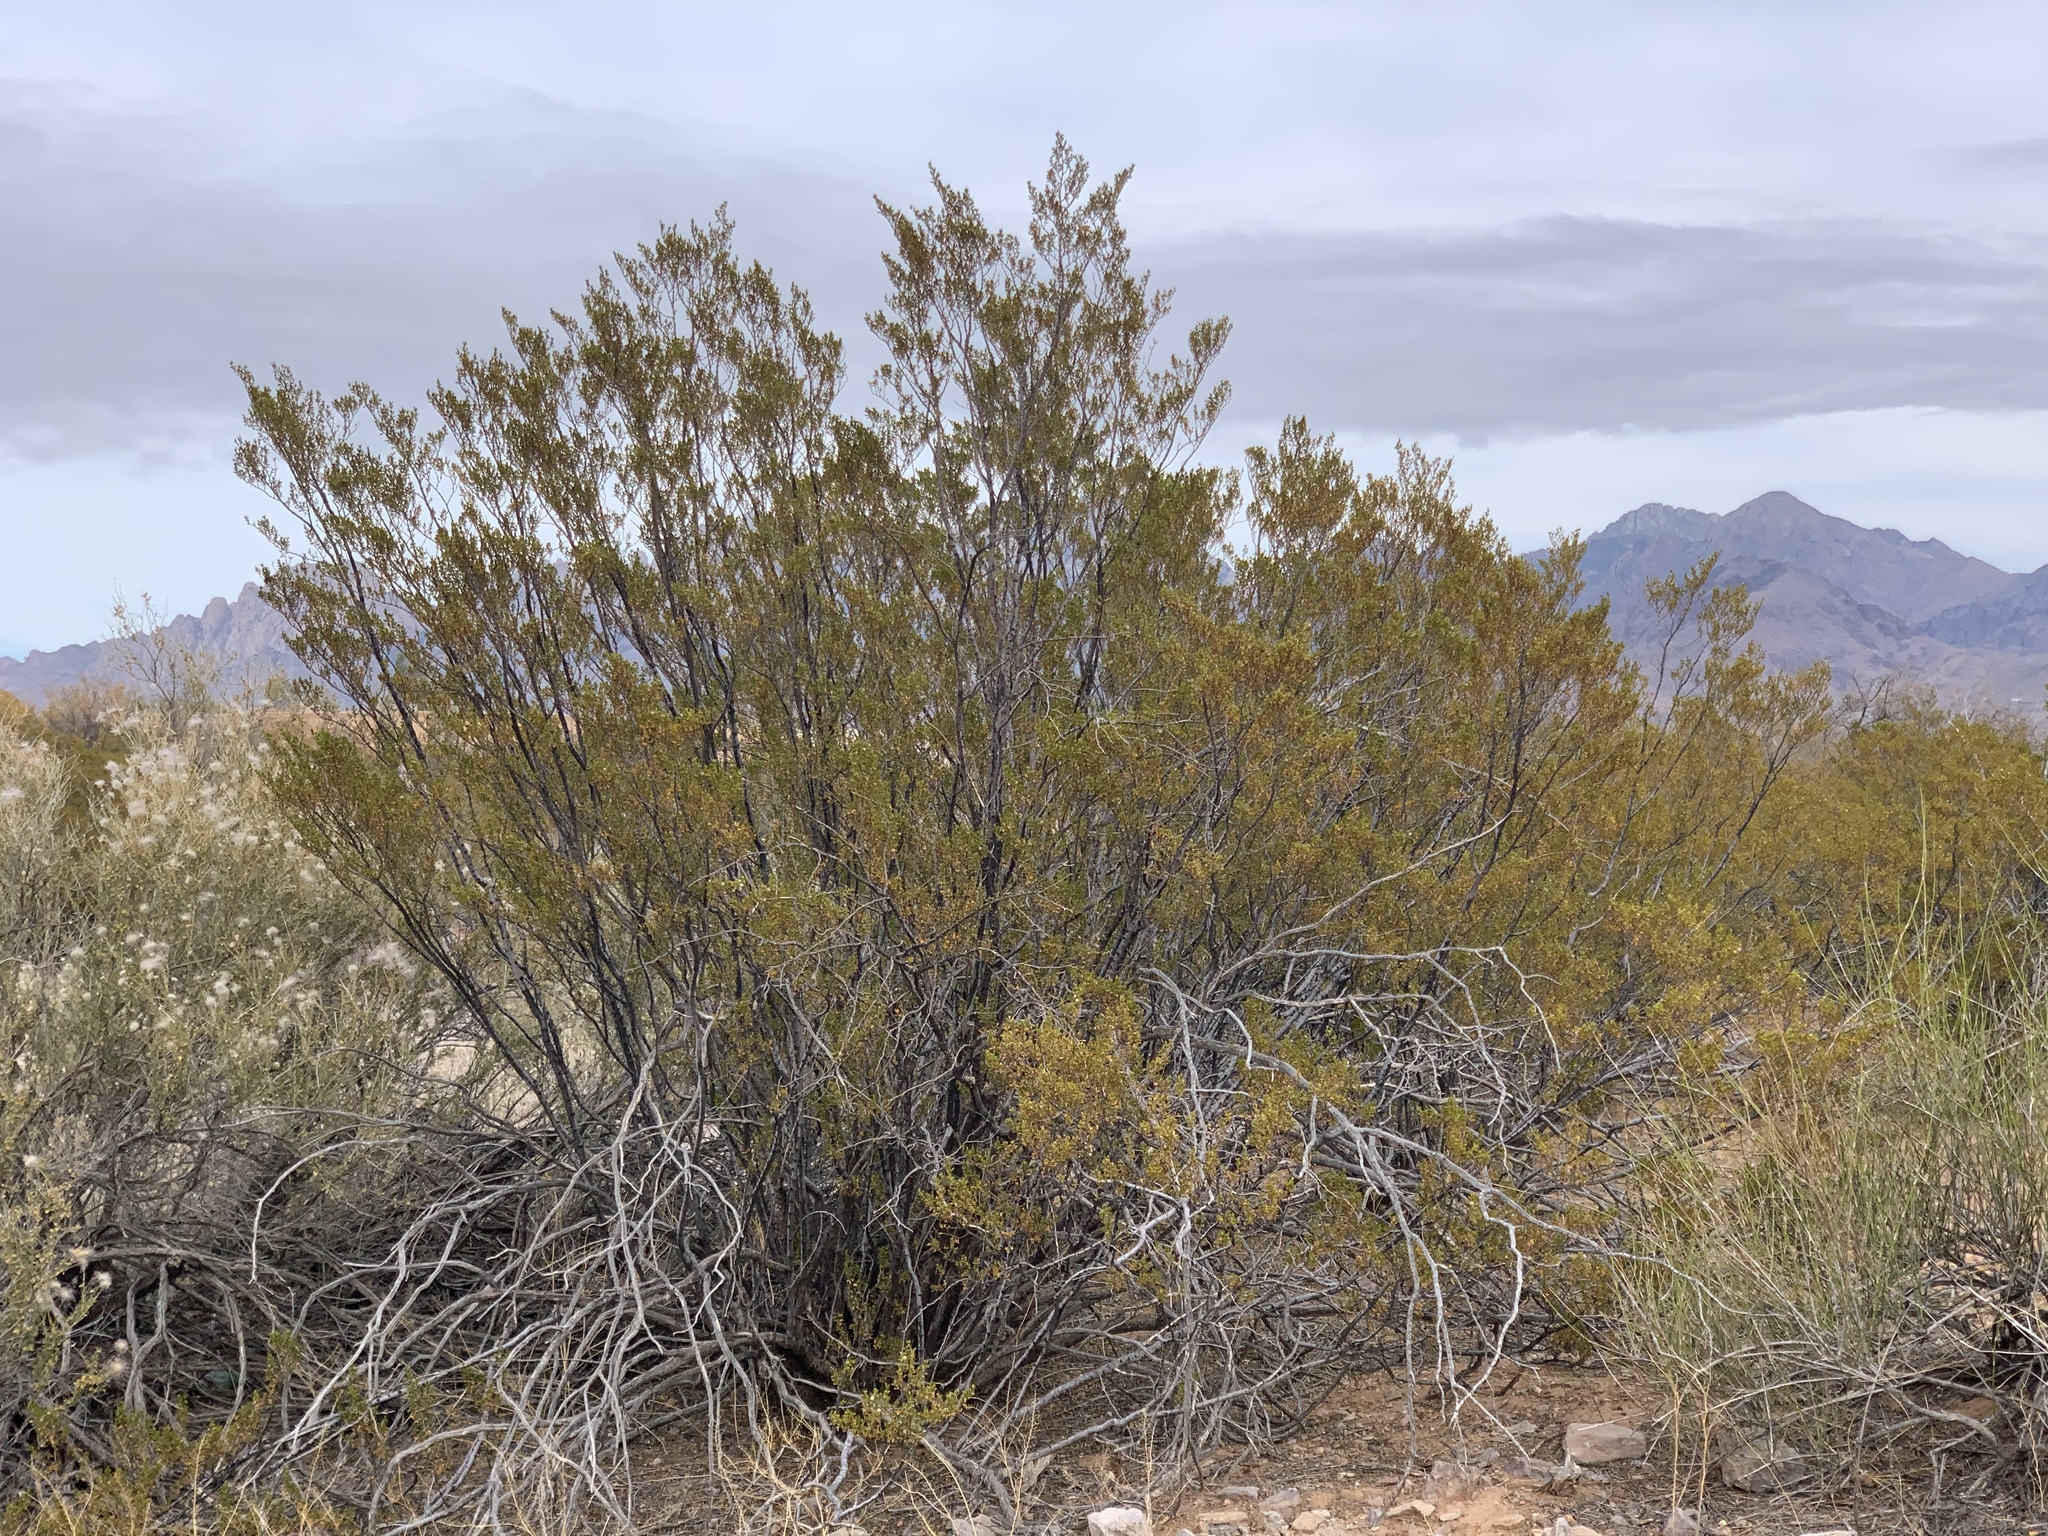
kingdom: Plantae
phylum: Tracheophyta
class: Magnoliopsida
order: Zygophyllales
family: Zygophyllaceae
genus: Larrea
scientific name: Larrea tridentata
